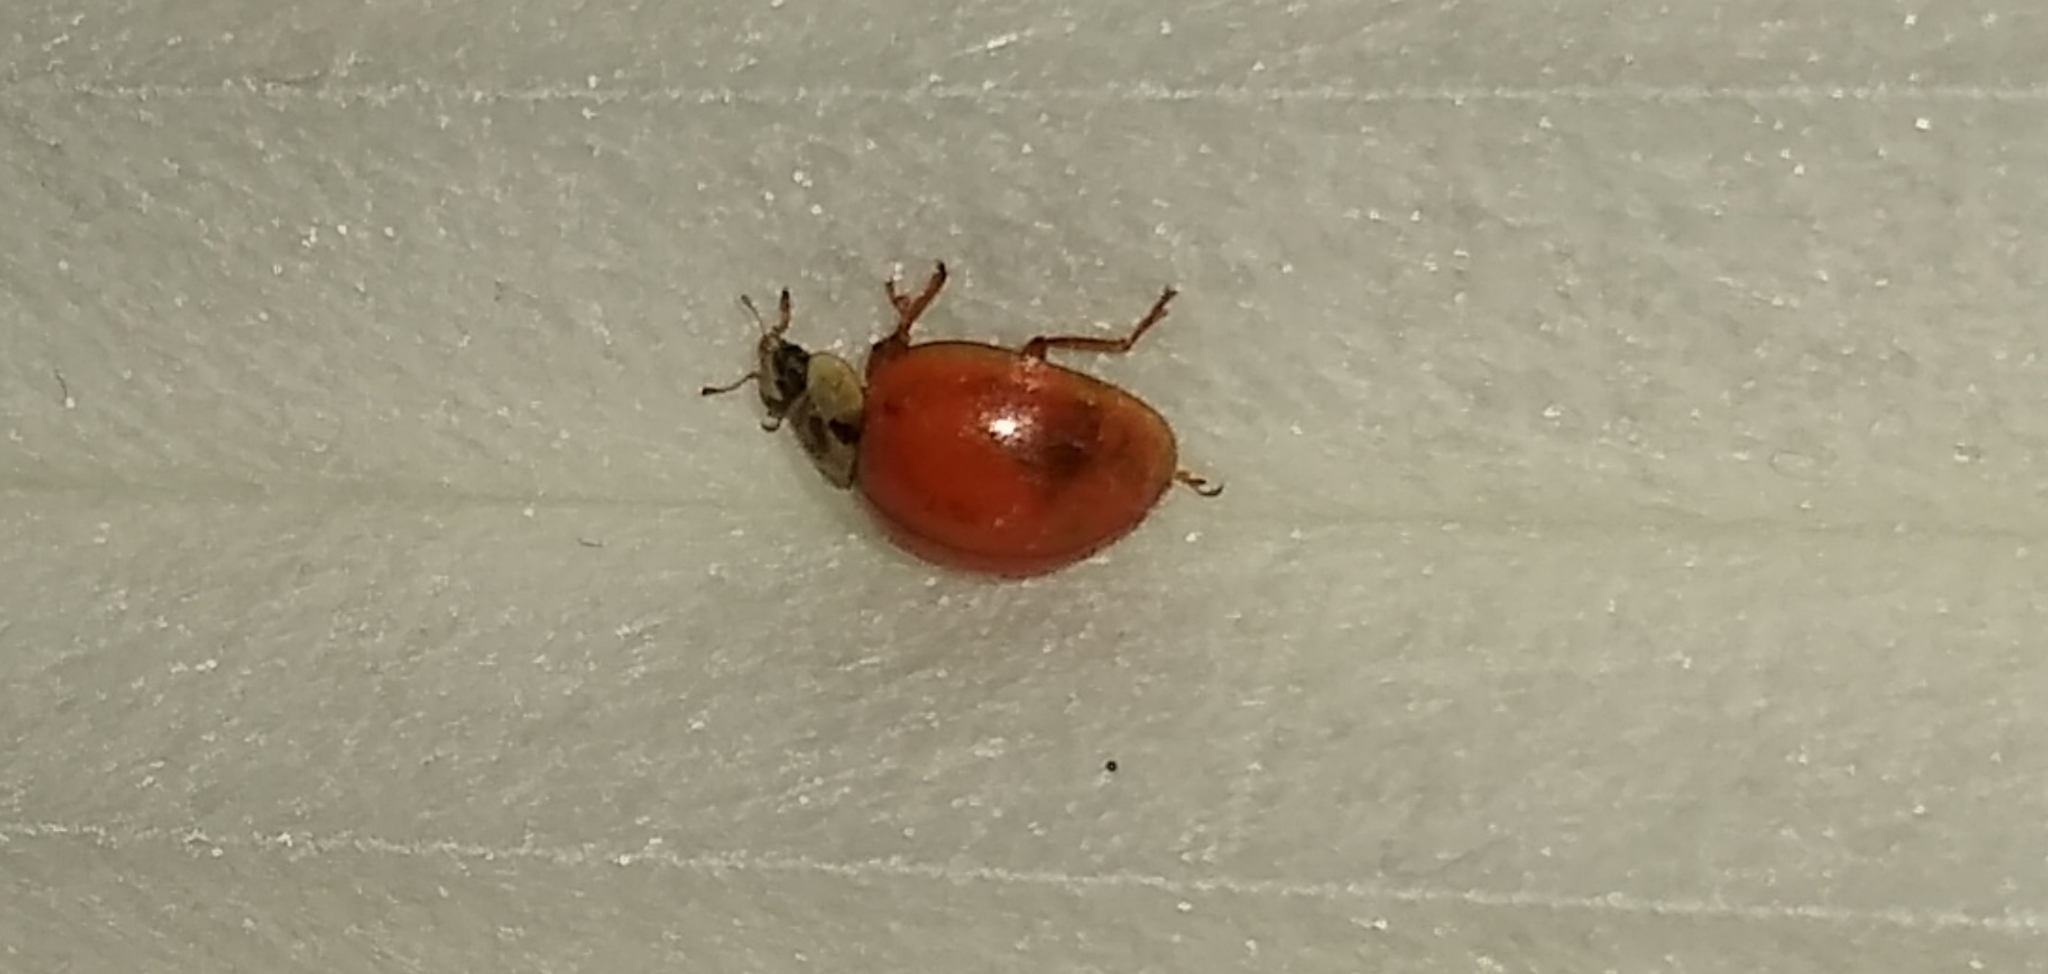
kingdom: Animalia
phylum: Arthropoda
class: Insecta
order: Coleoptera
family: Coccinellidae
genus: Harmonia
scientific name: Harmonia axyridis
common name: Harlequin ladybird
